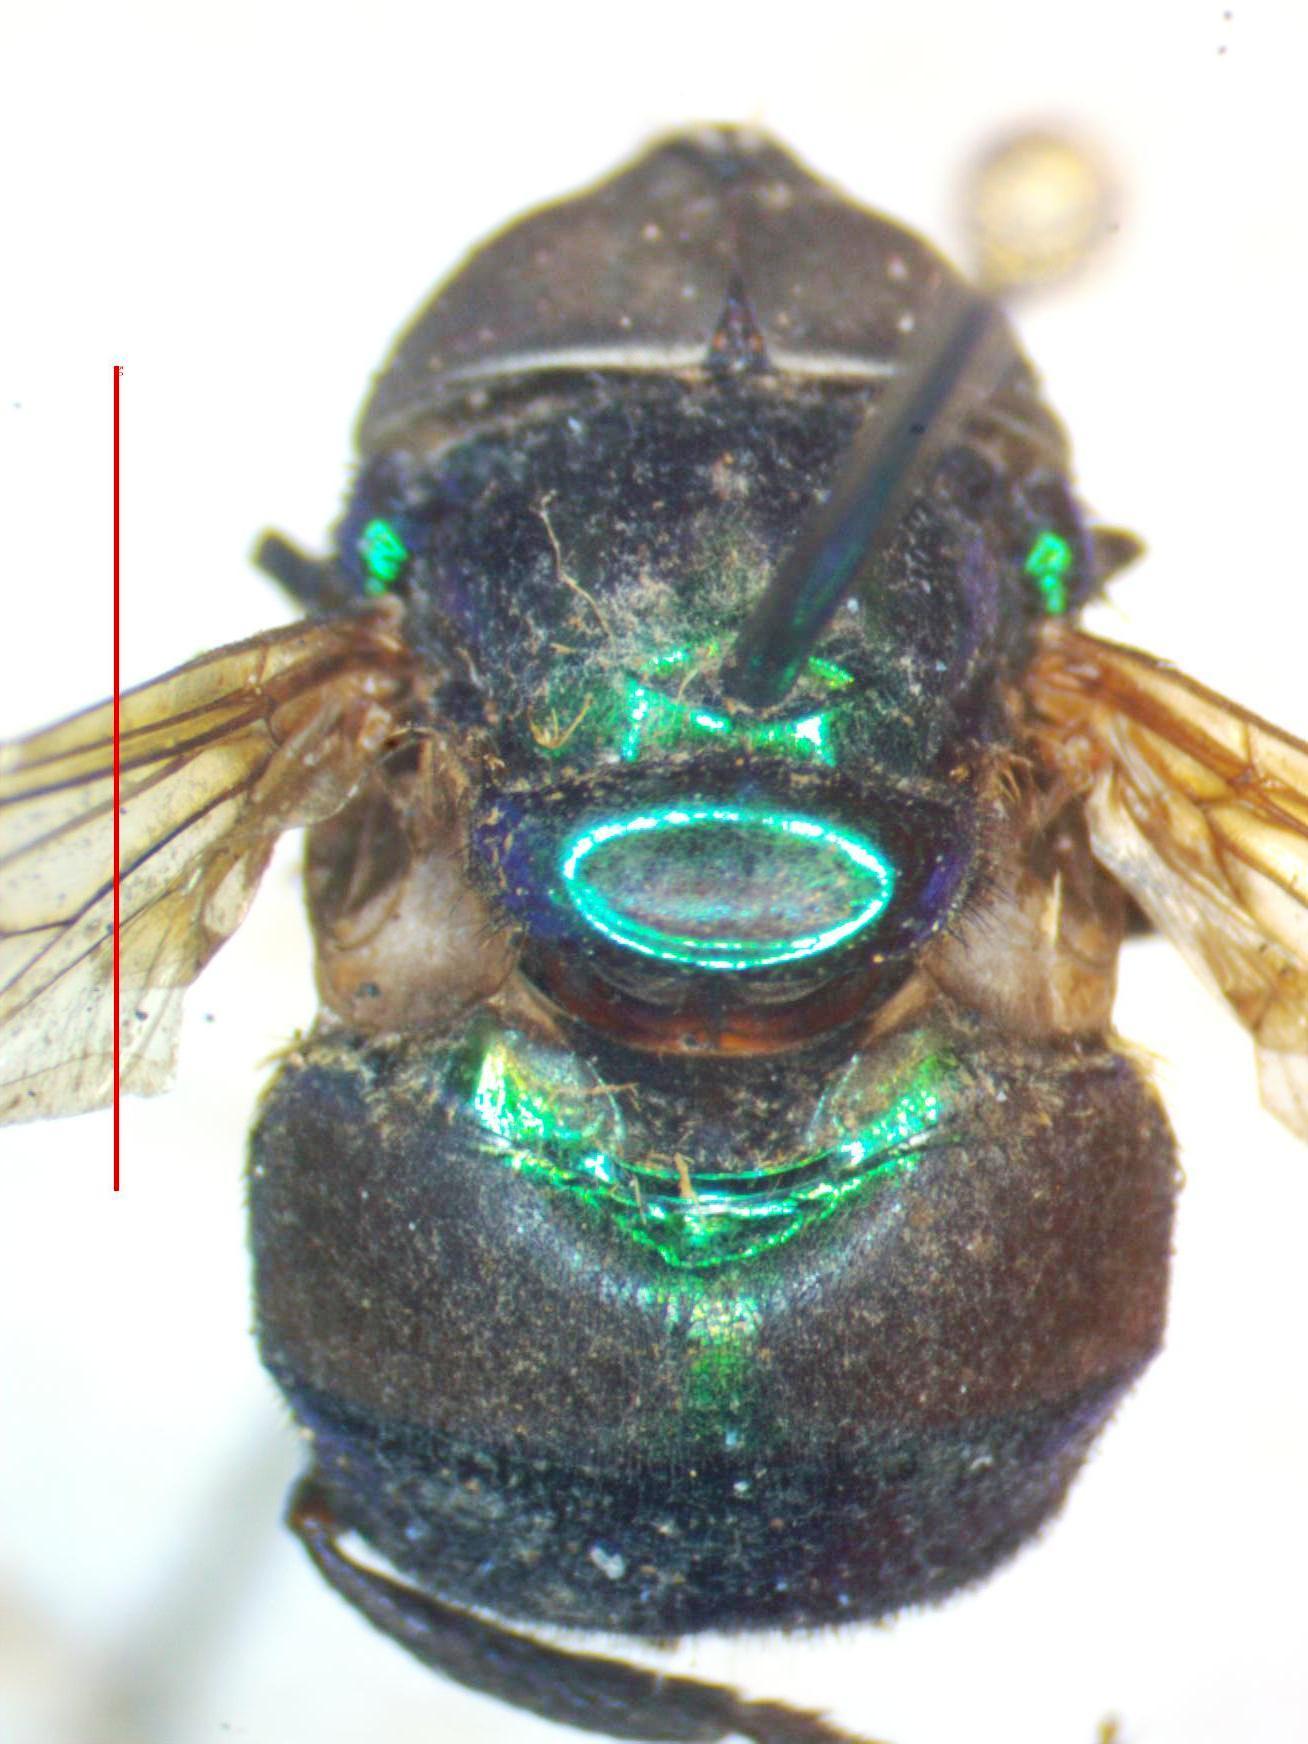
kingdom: Animalia
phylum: Arthropoda
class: Insecta
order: Diptera
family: Syrphidae
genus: Ornidia
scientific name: Ornidia obesa
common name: Syrphid fly
